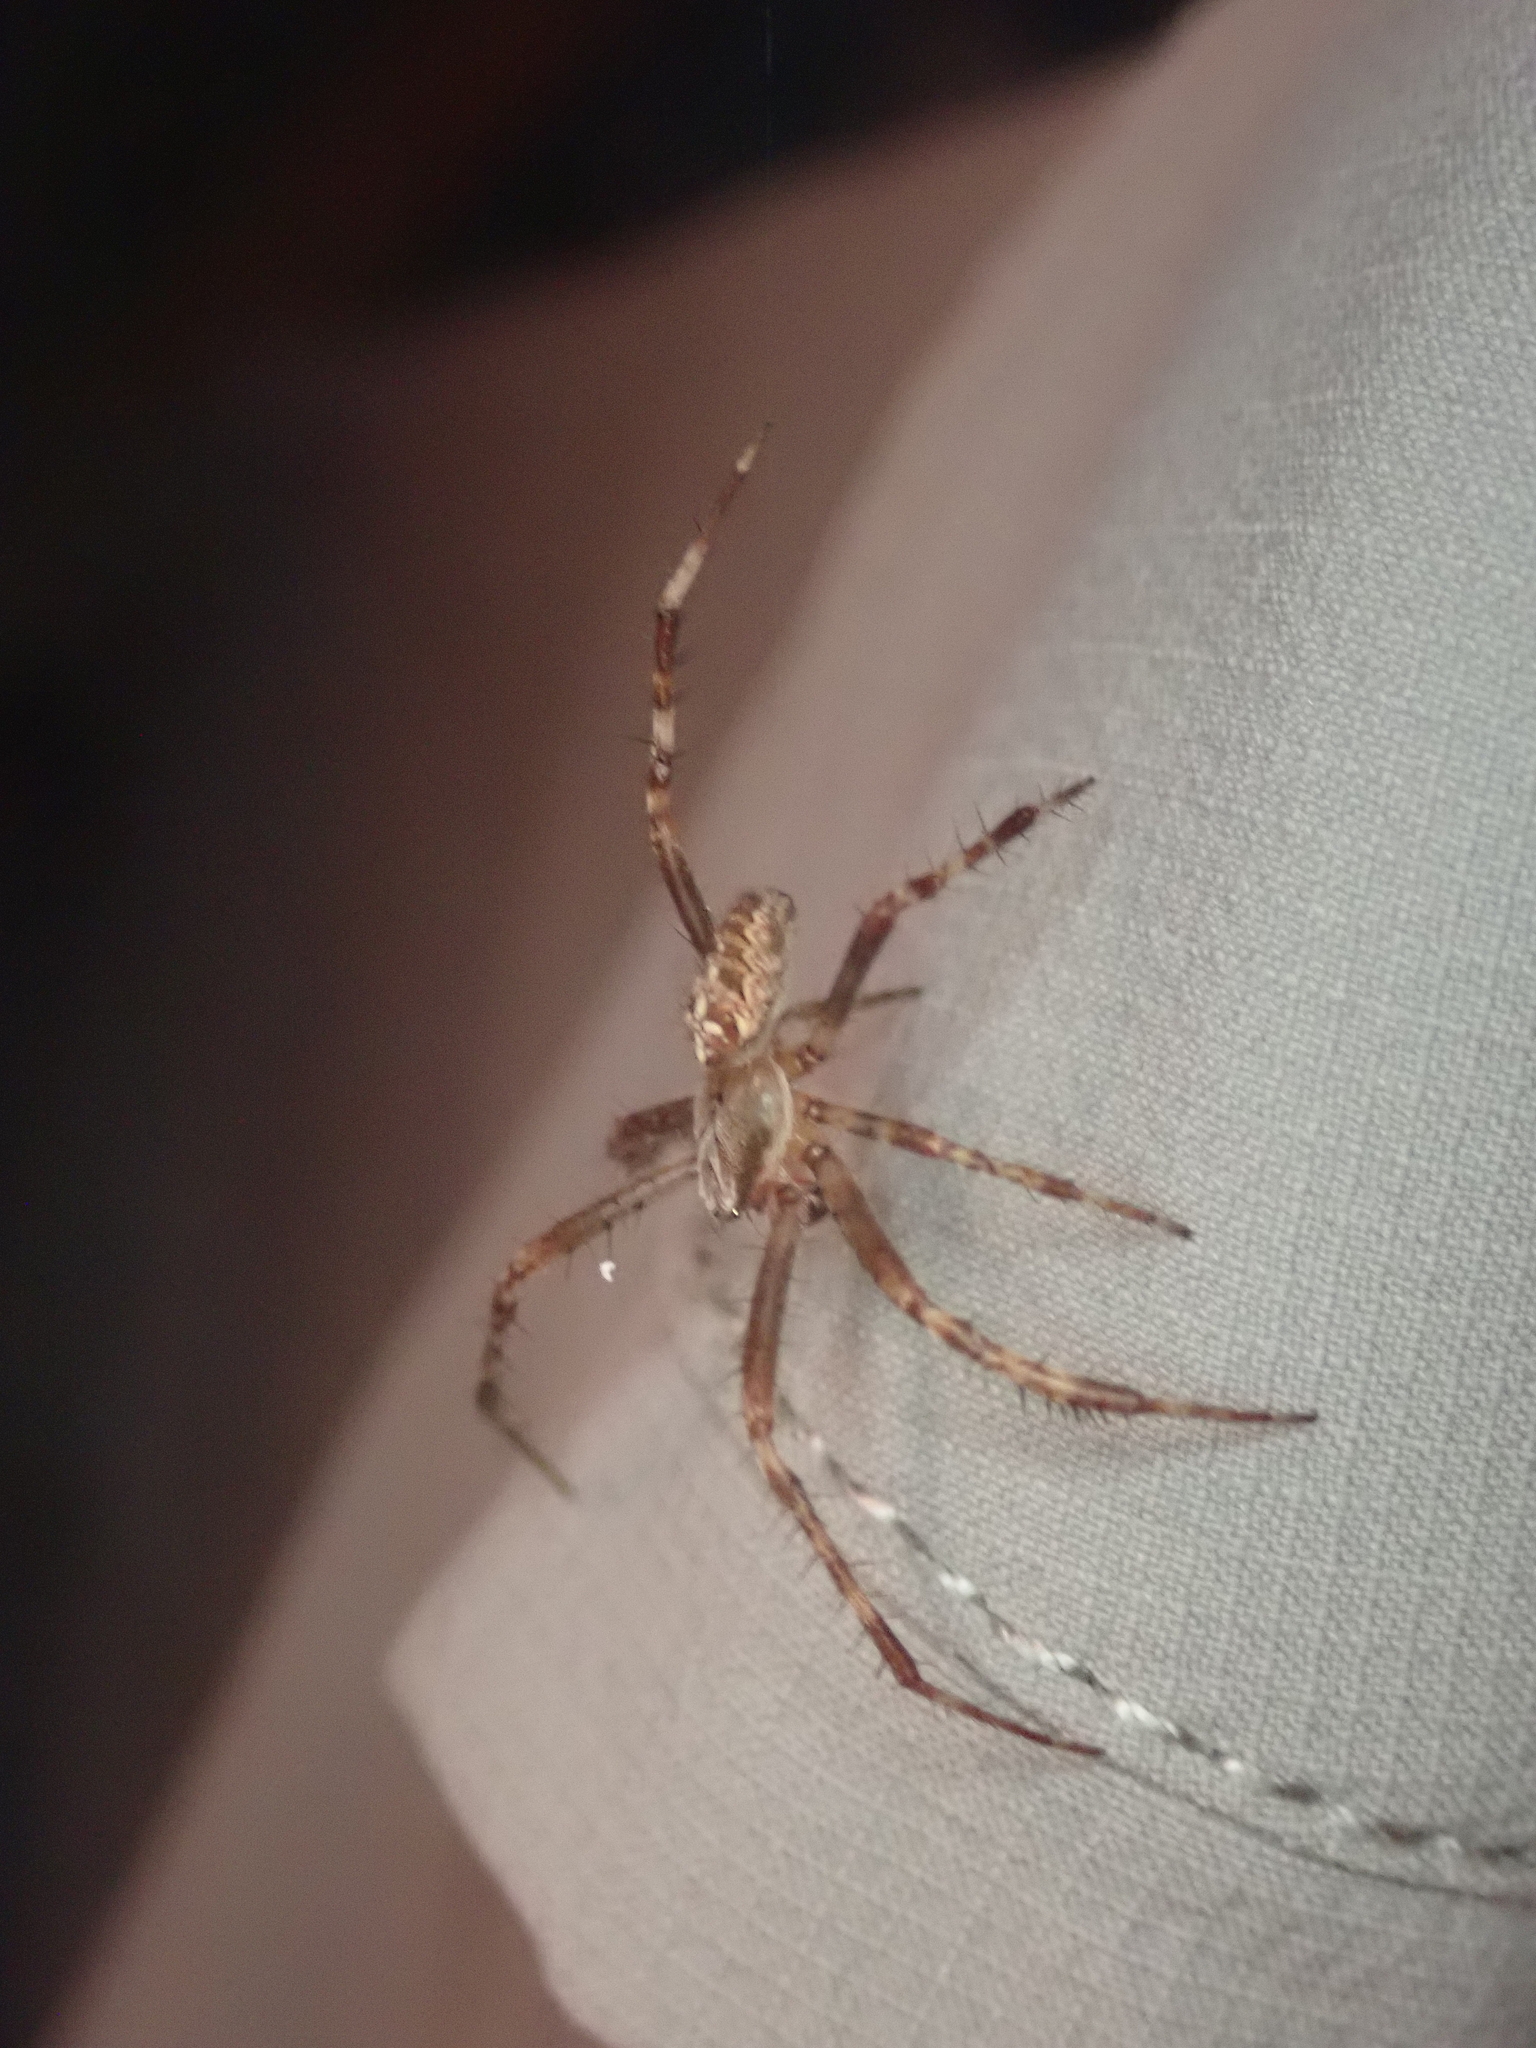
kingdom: Animalia
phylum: Arthropoda
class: Arachnida
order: Araneae
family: Araneidae
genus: Araneus
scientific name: Araneus diadematus
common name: Cross orbweaver
